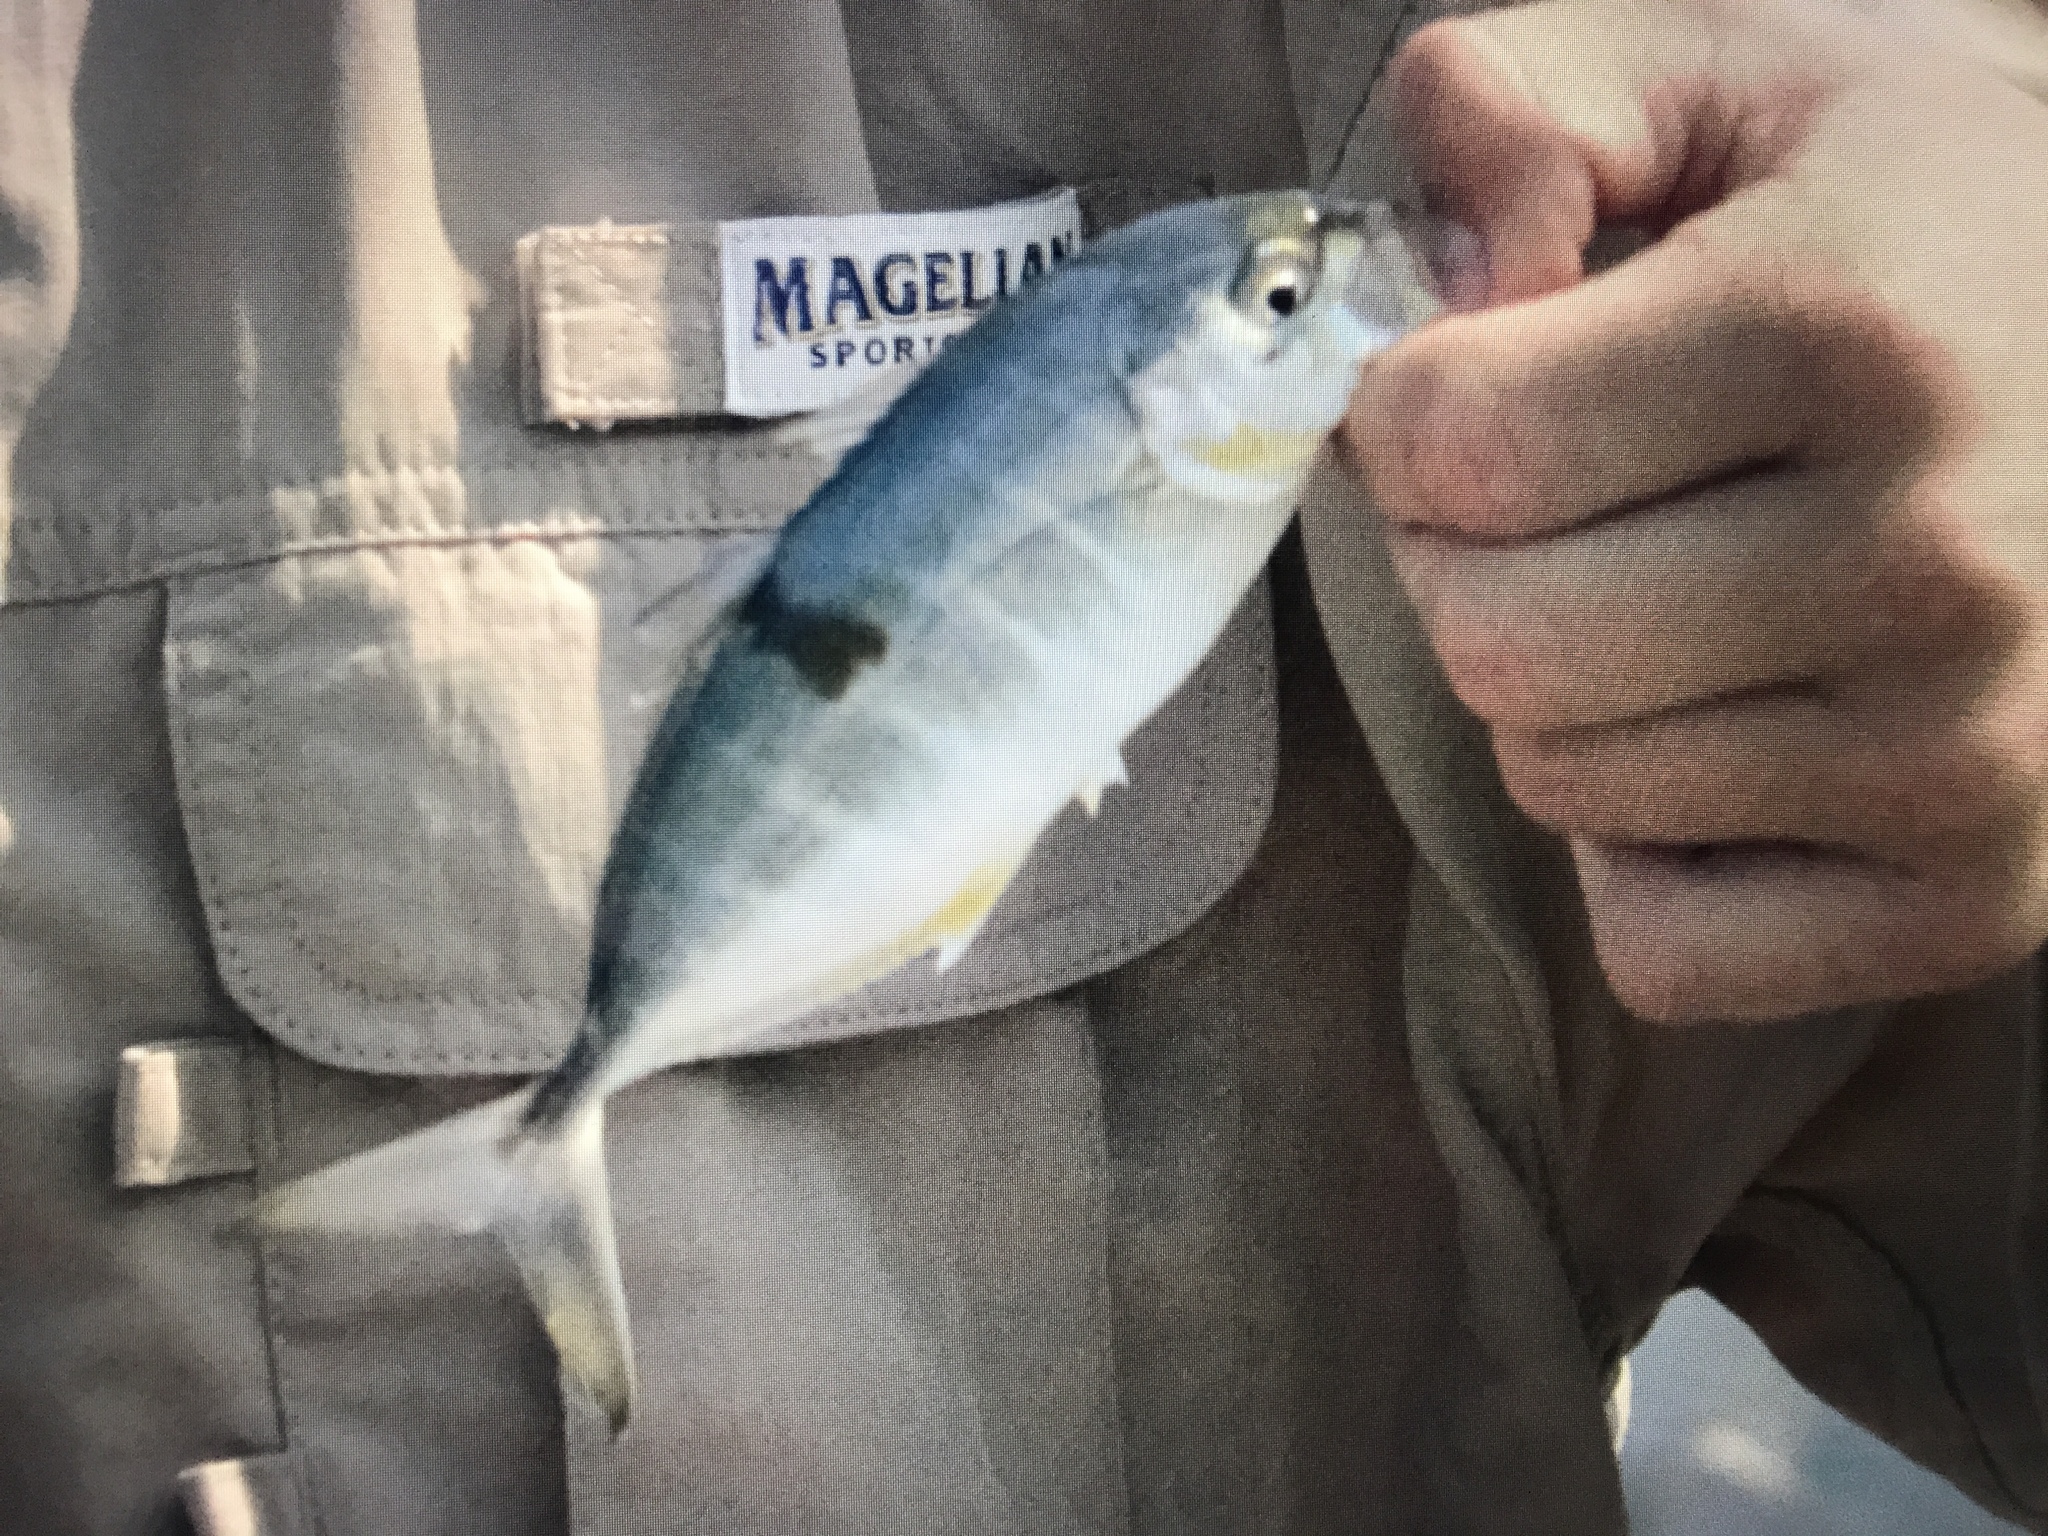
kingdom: Animalia
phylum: Chordata
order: Perciformes
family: Carangidae
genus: Caranx
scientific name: Caranx crysos
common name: Blue runner
